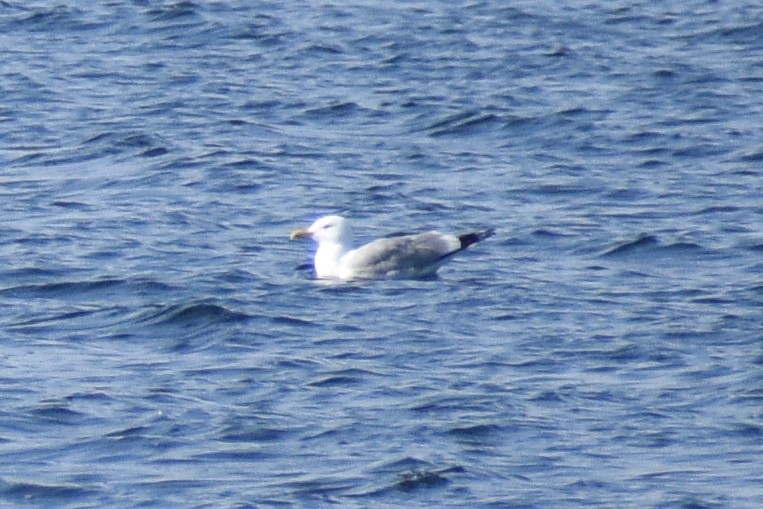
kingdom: Animalia
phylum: Chordata
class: Aves
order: Charadriiformes
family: Laridae
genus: Larus
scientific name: Larus argentatus
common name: Herring gull
